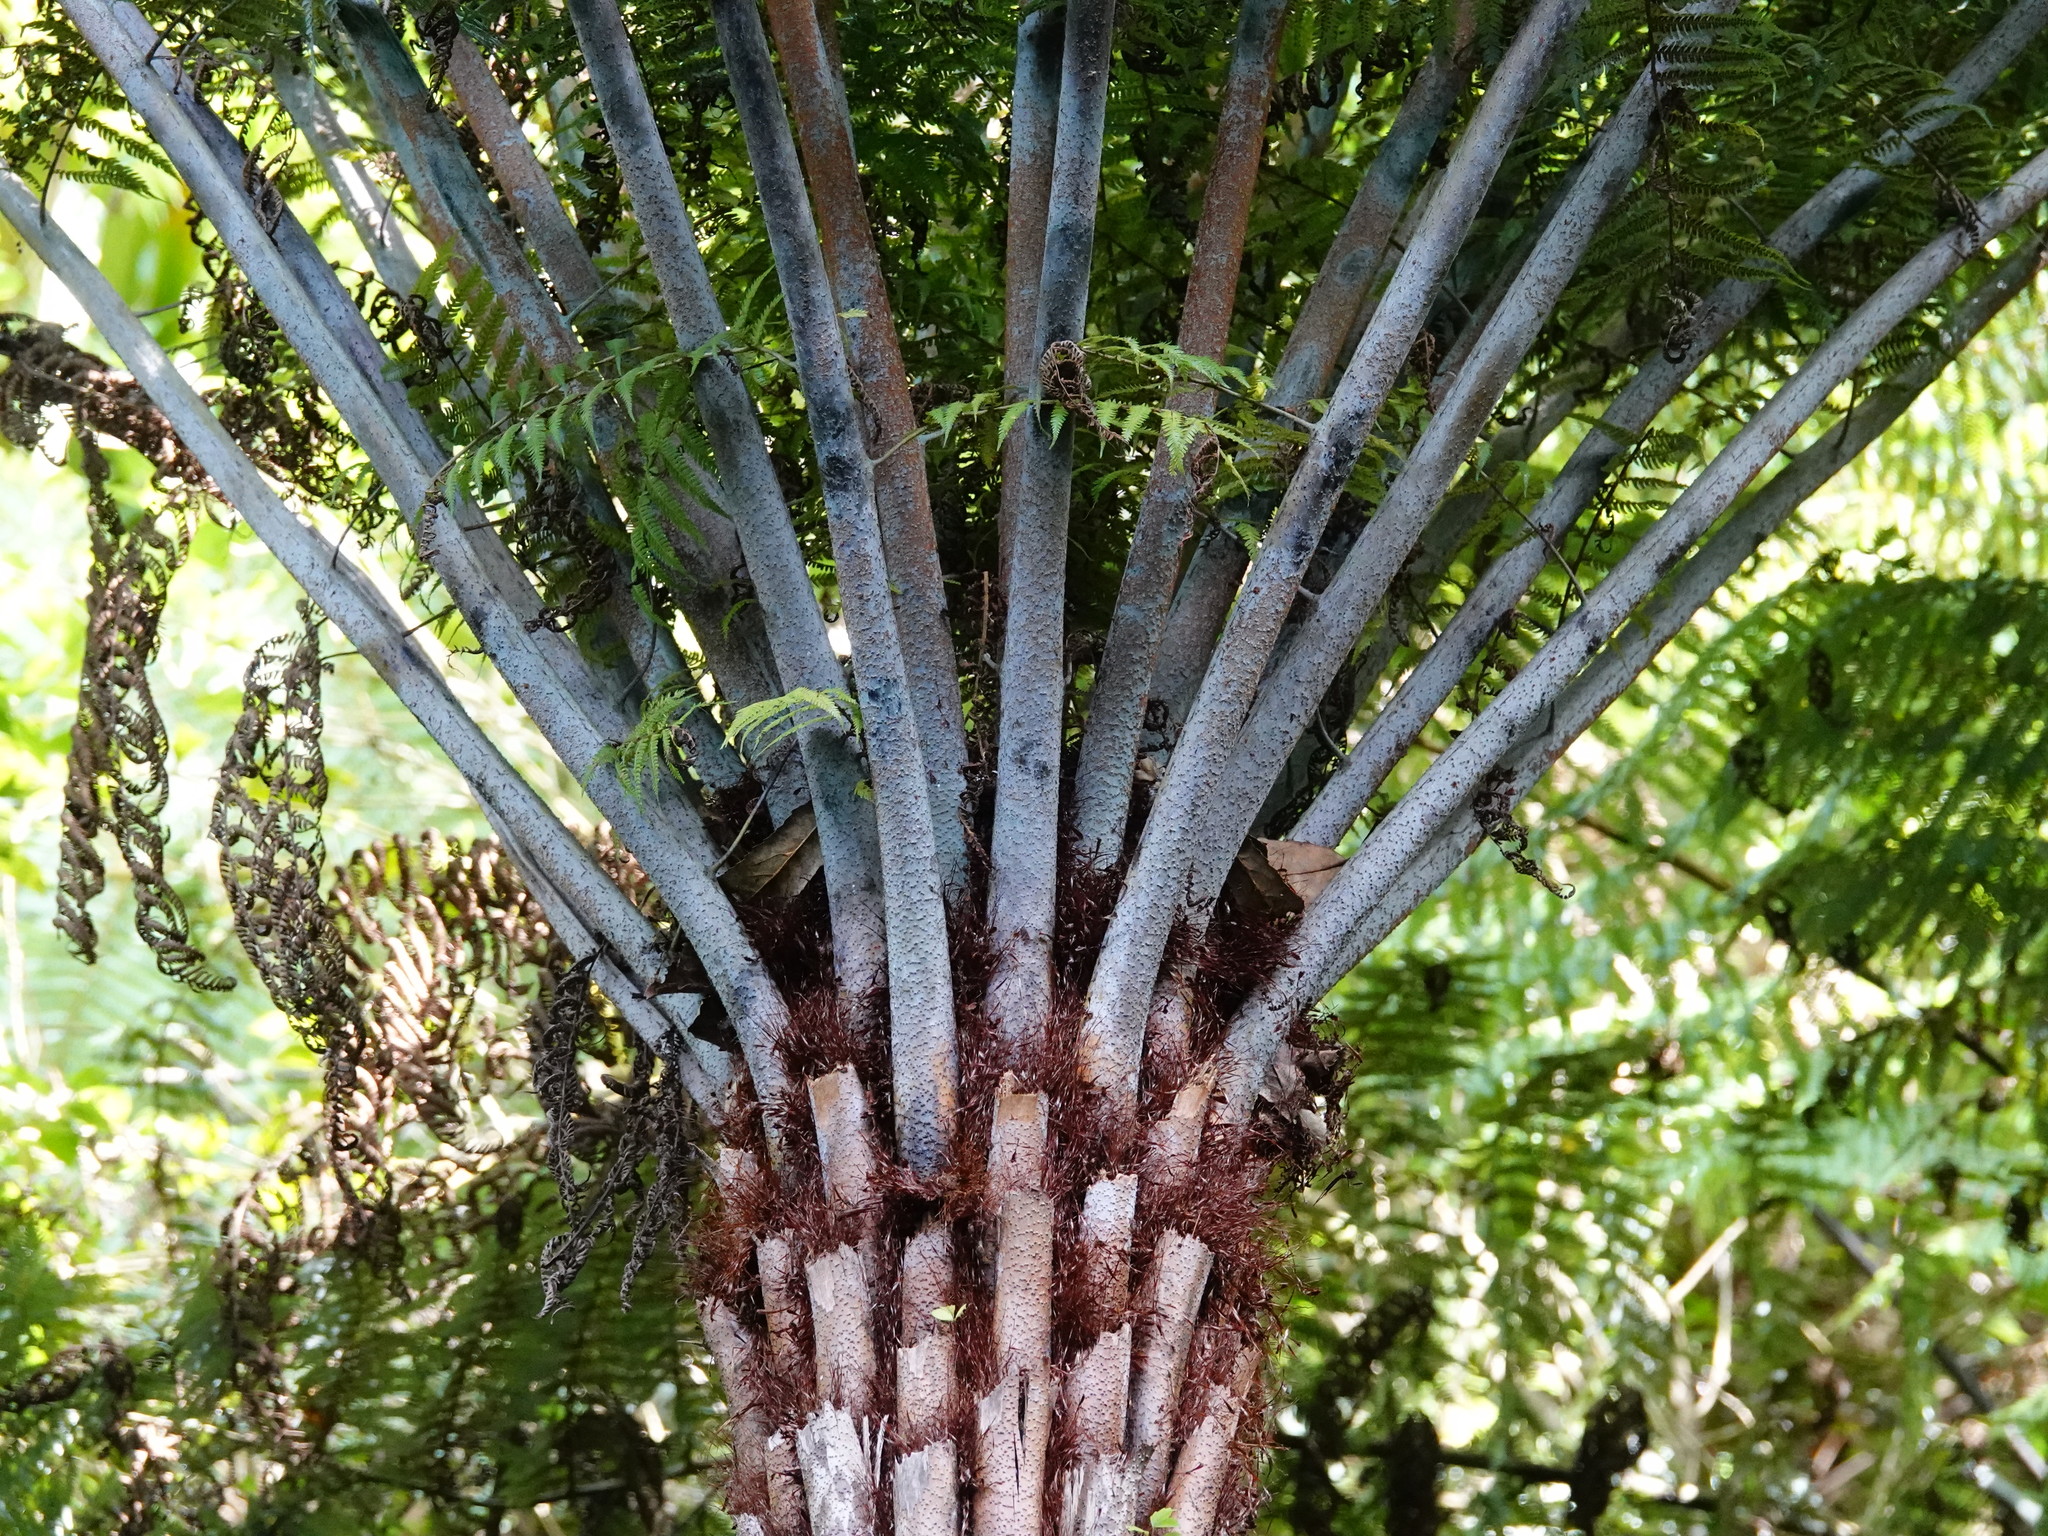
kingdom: Plantae
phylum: Tracheophyta
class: Polypodiopsida
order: Cyatheales
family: Cyatheaceae
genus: Alsophila
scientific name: Alsophila dealbata
